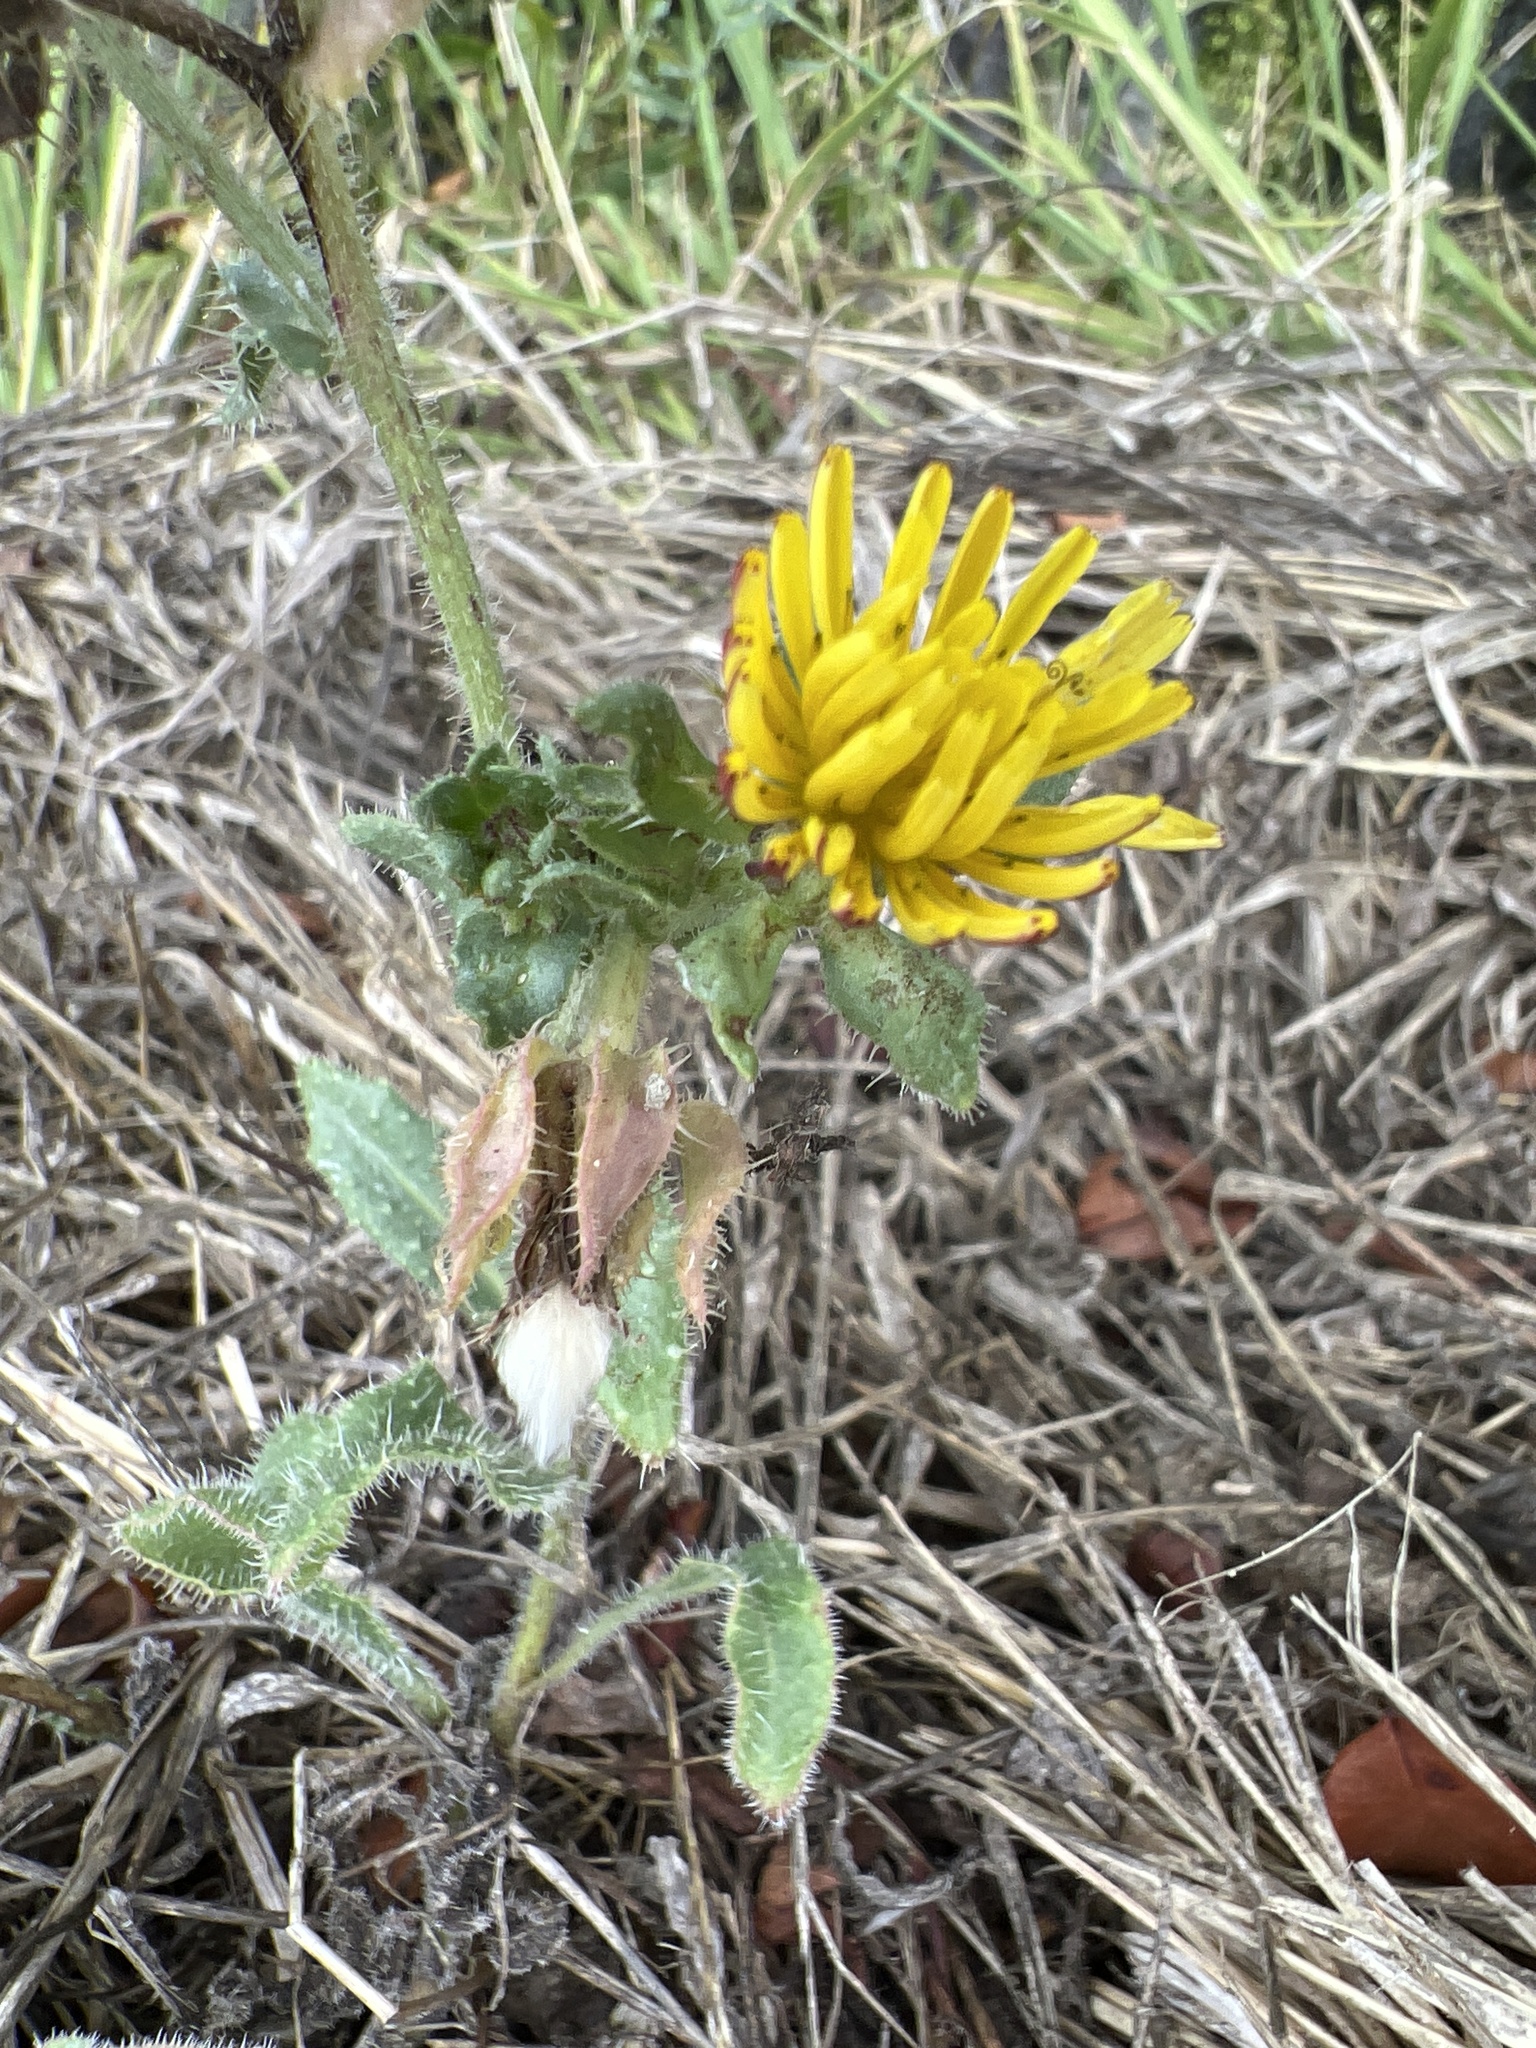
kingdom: Plantae
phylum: Tracheophyta
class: Magnoliopsida
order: Asterales
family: Asteraceae
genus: Helminthotheca
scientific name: Helminthotheca echioides
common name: Ox-tongue
